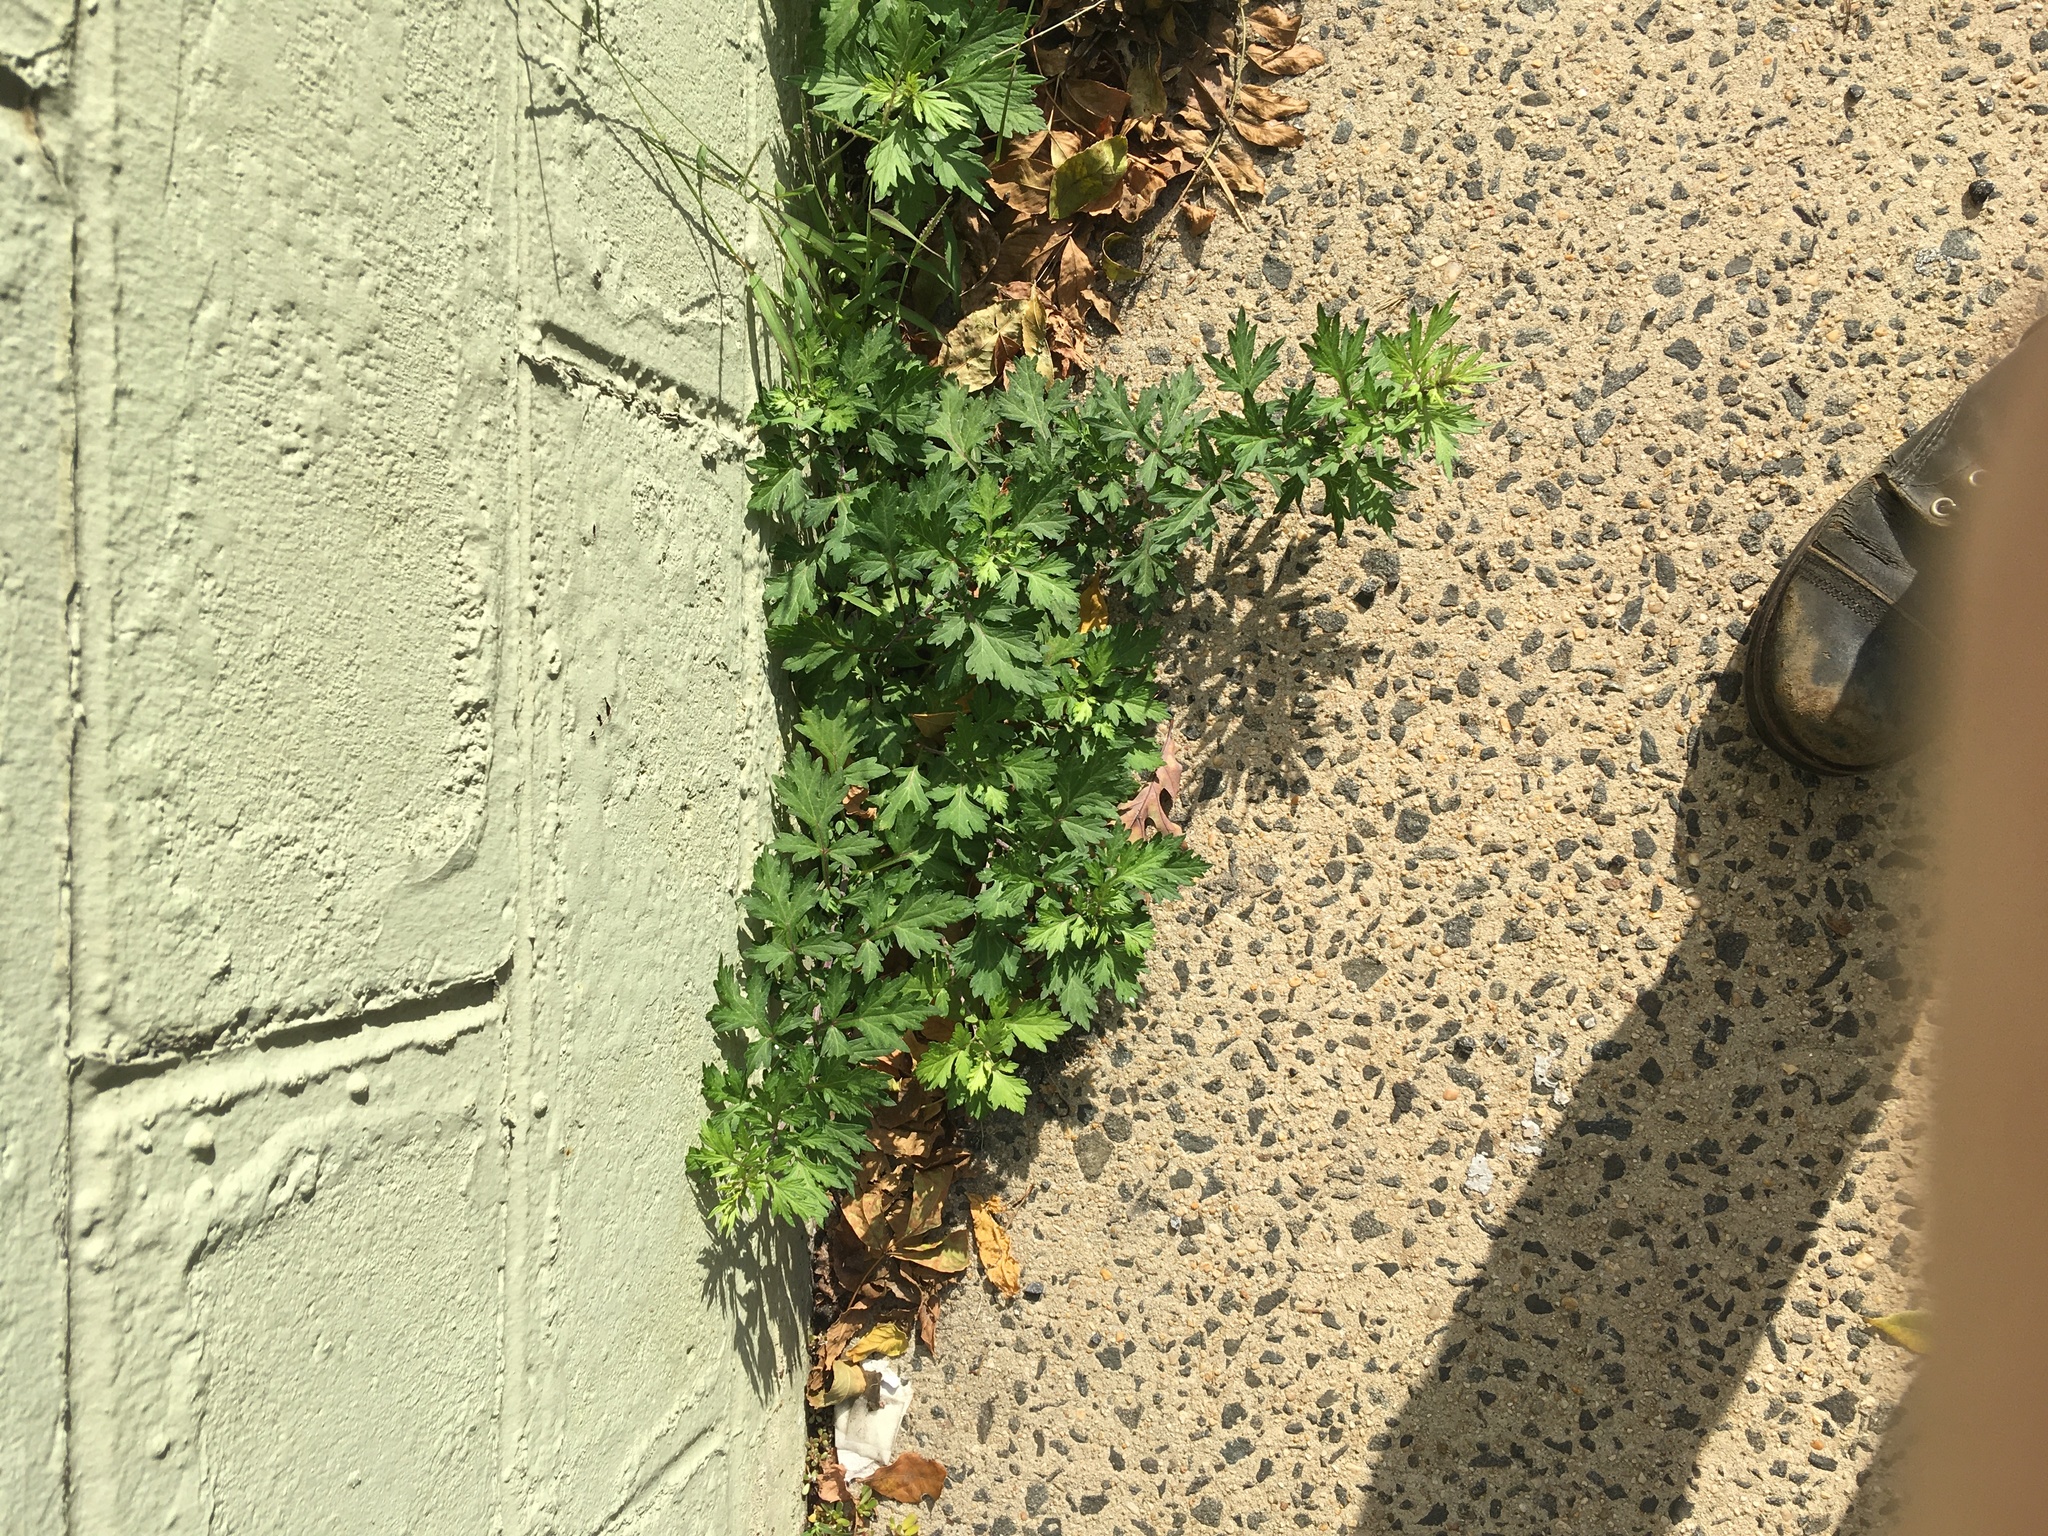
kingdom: Plantae
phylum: Tracheophyta
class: Magnoliopsida
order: Asterales
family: Asteraceae
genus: Artemisia
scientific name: Artemisia vulgaris
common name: Mugwort
